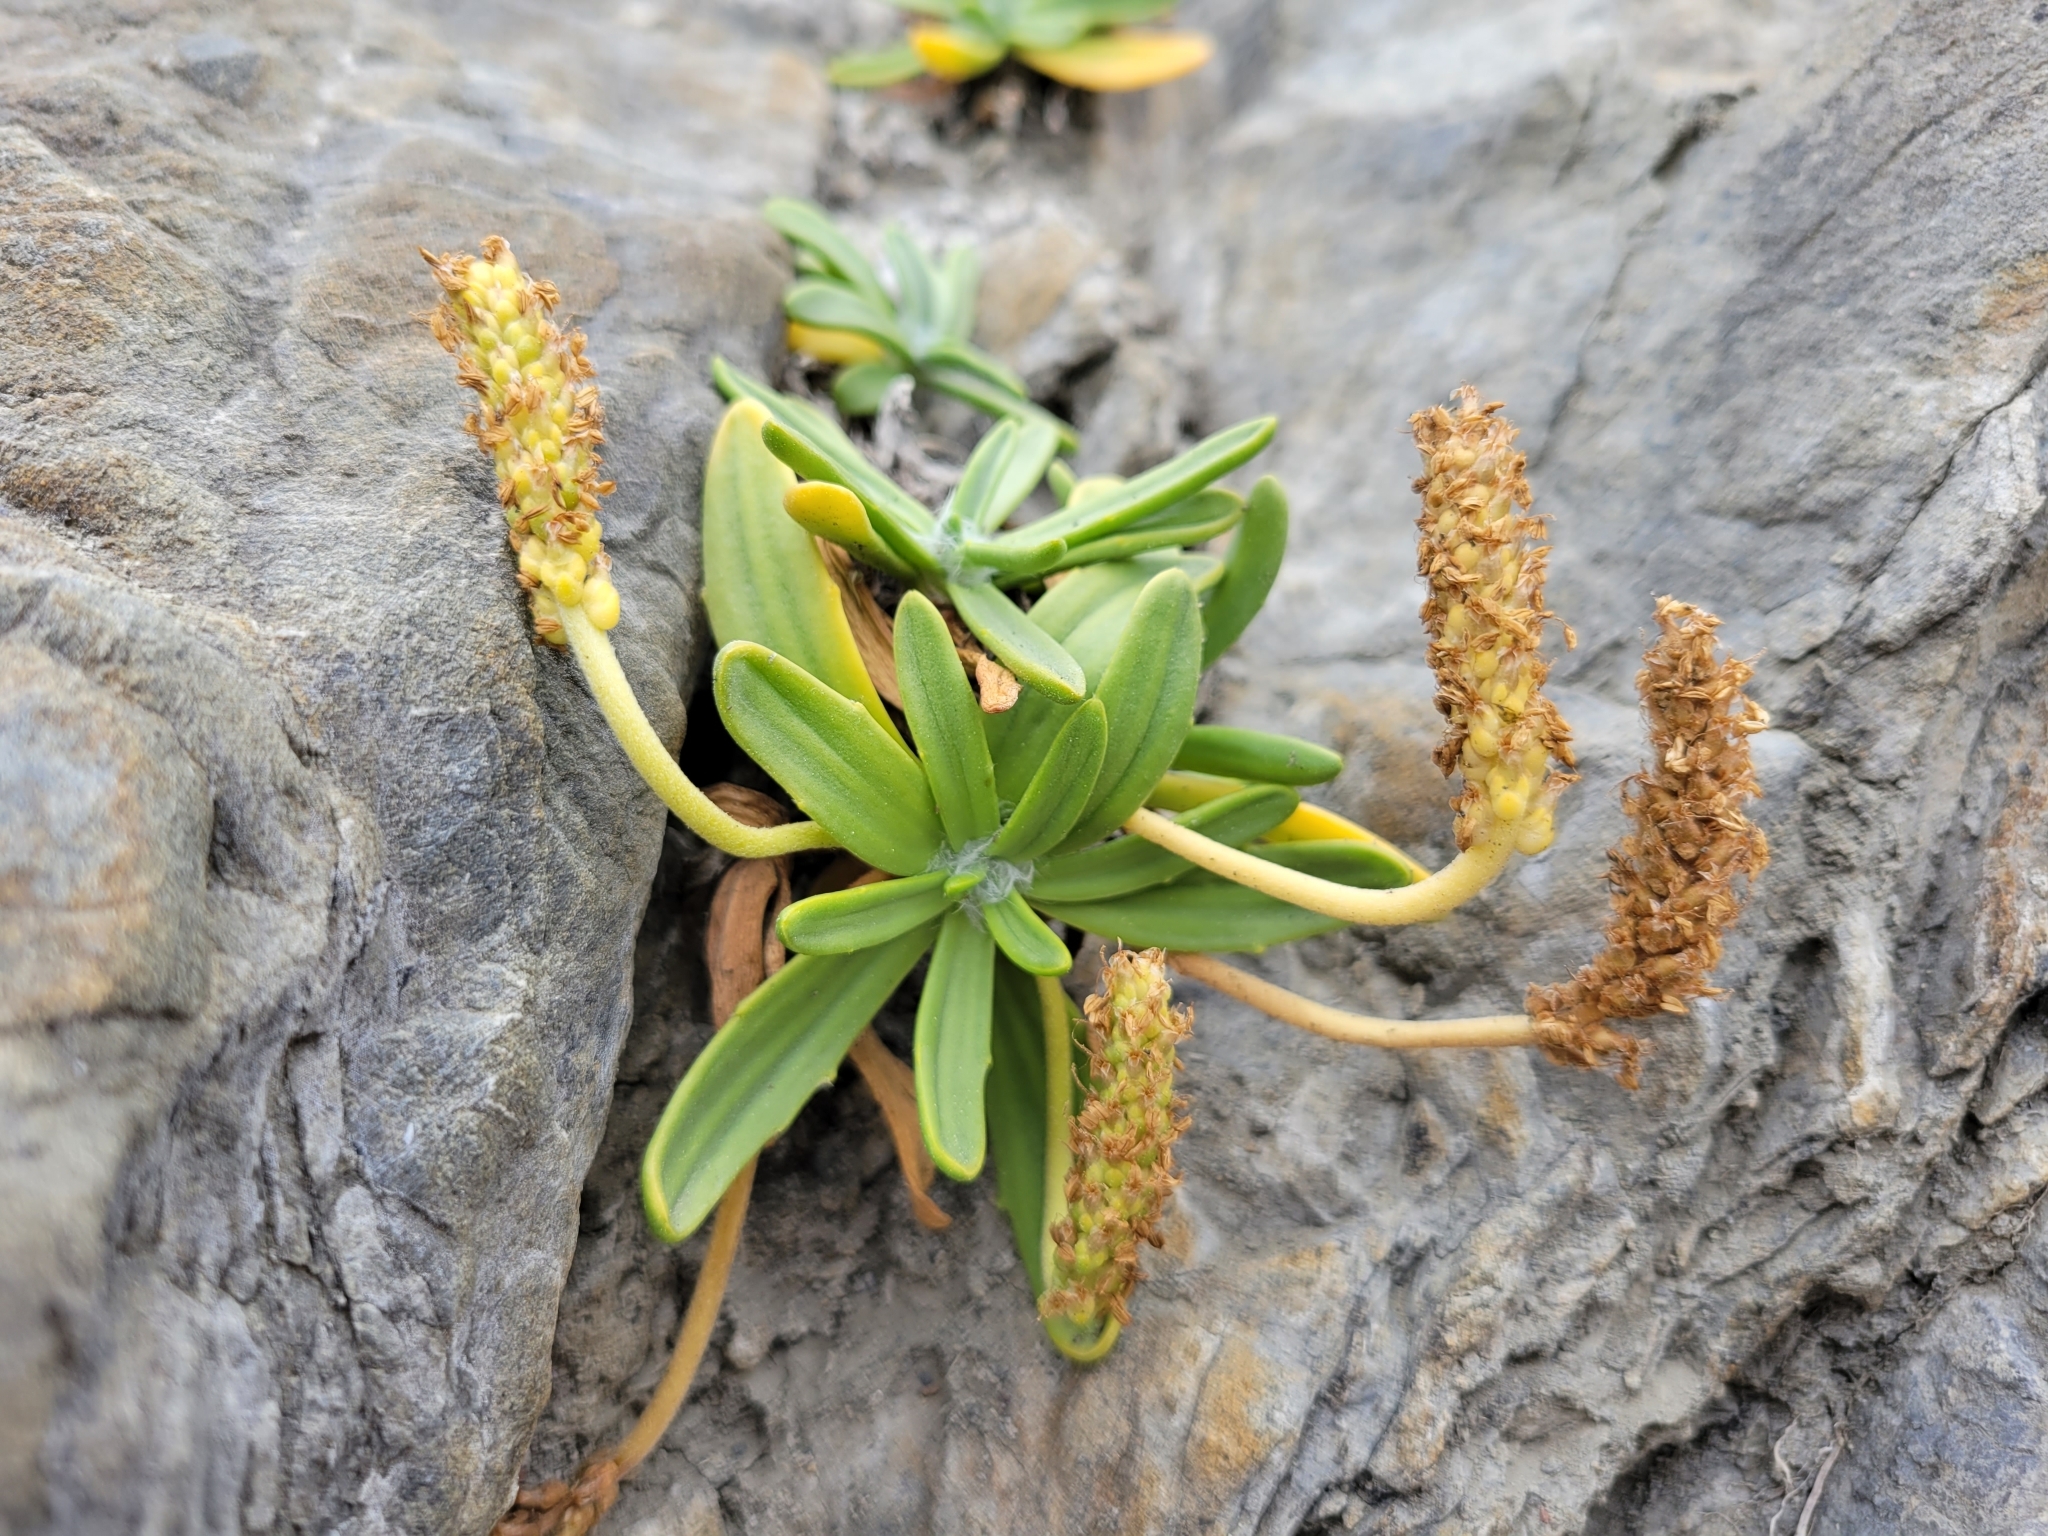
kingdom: Plantae
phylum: Tracheophyta
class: Magnoliopsida
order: Lamiales
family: Plantaginaceae
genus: Plantago
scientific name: Plantago maritima
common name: Sea plantain
